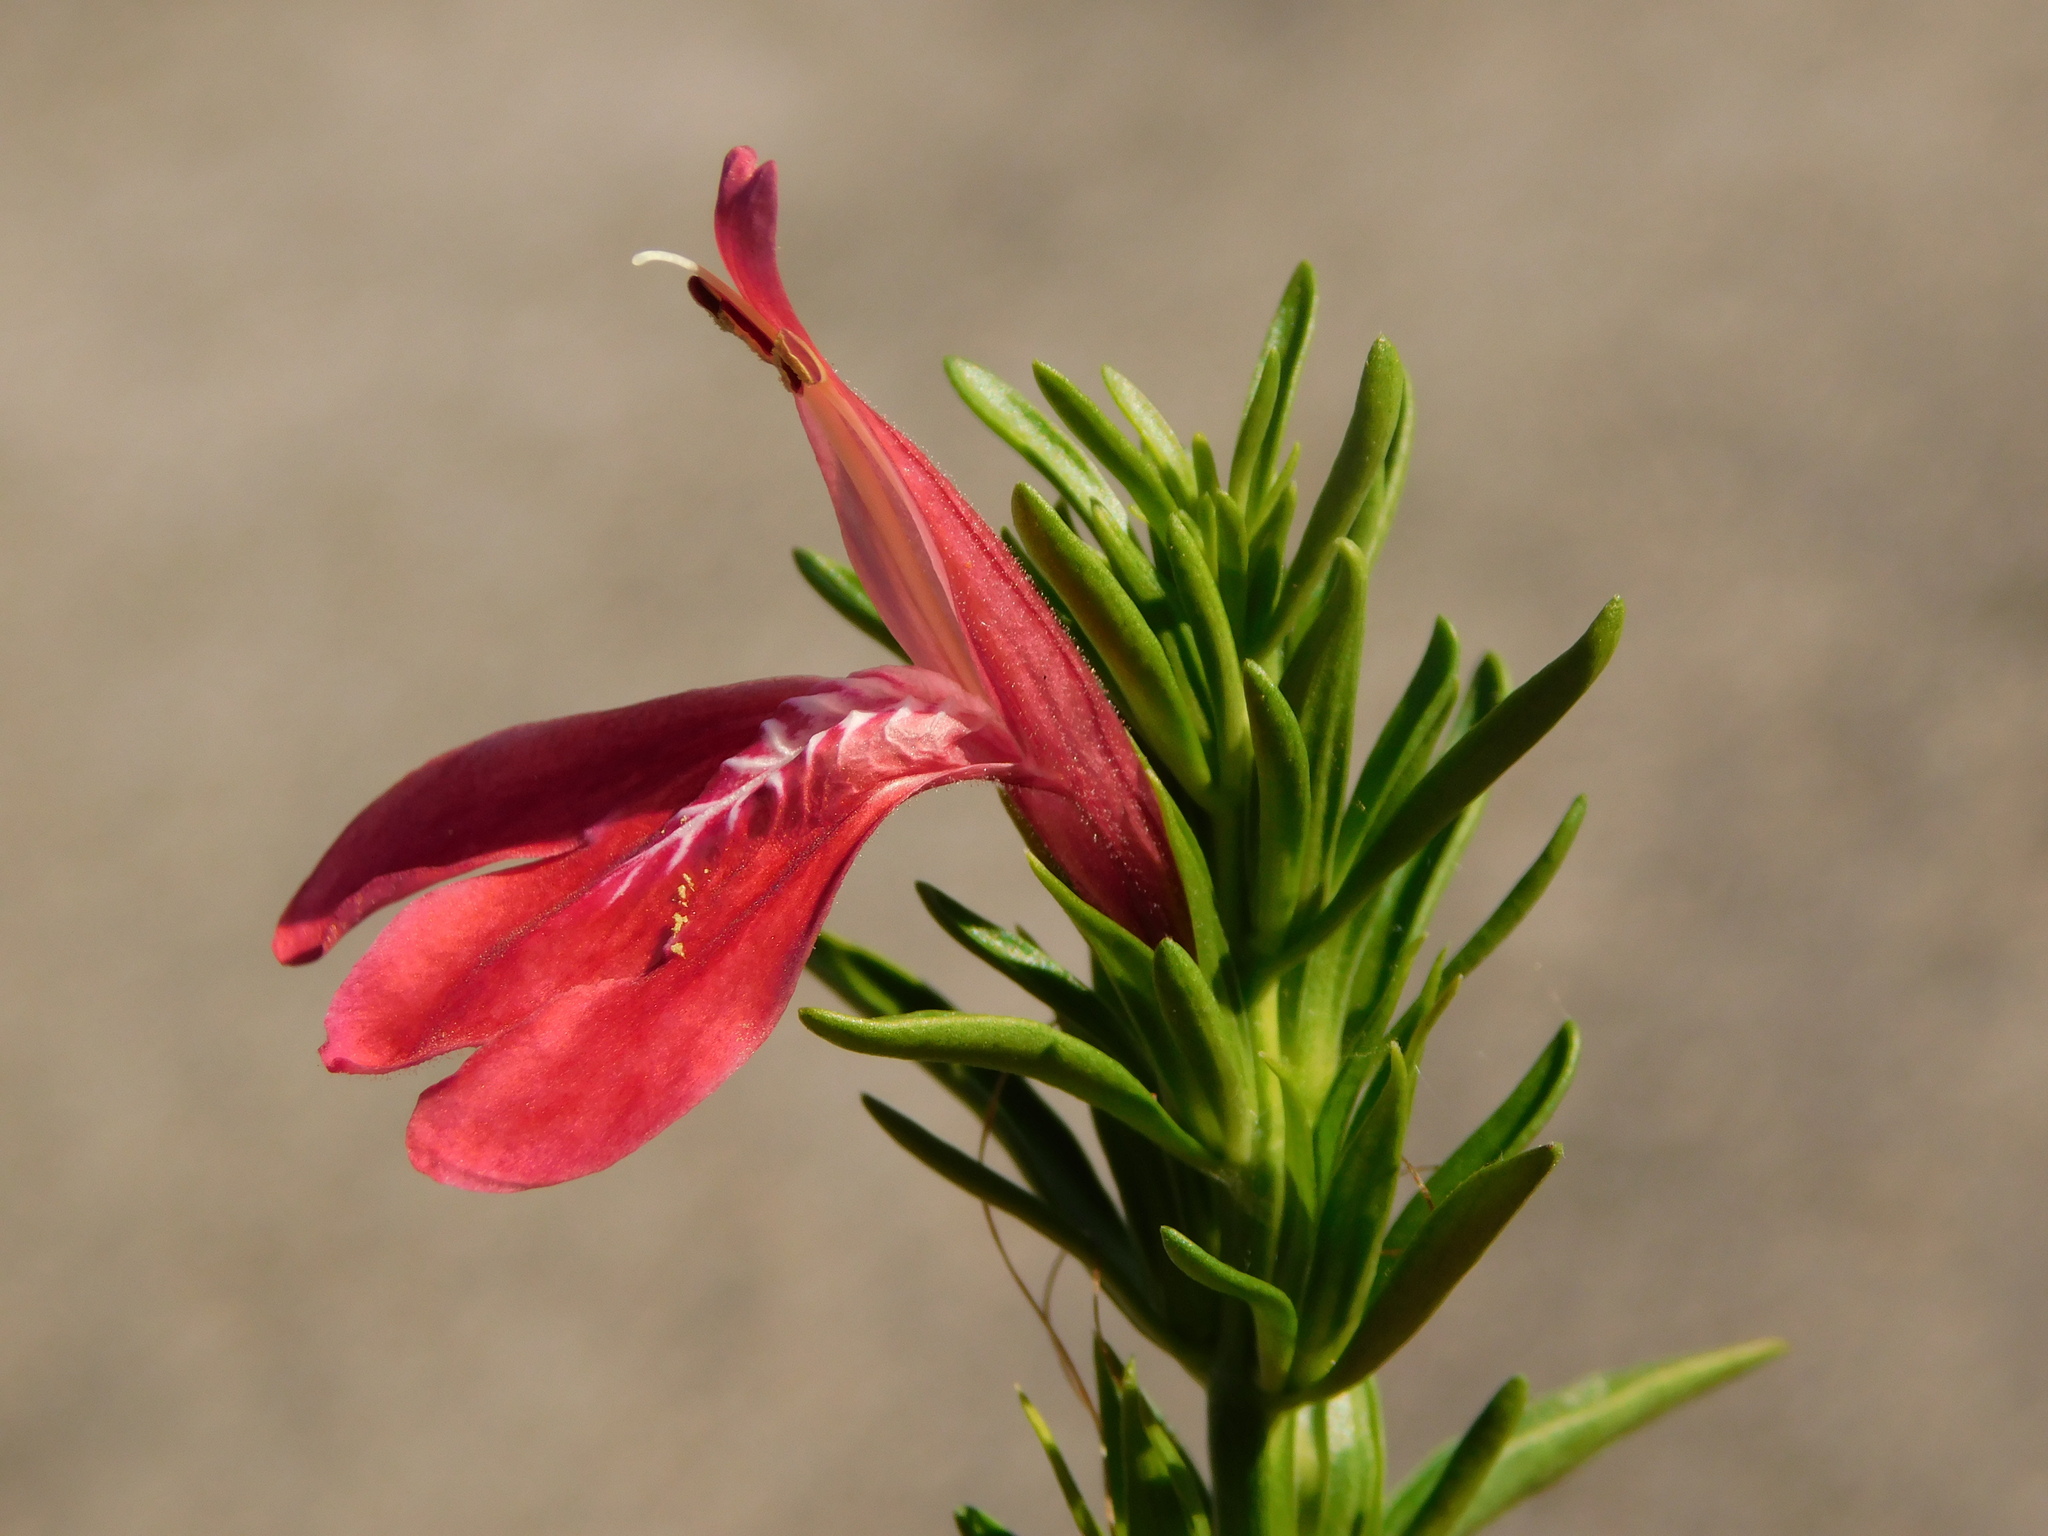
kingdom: Plantae
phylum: Tracheophyta
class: Magnoliopsida
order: Lamiales
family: Acanthaceae
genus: Justicia
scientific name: Justicia carthaginensis
